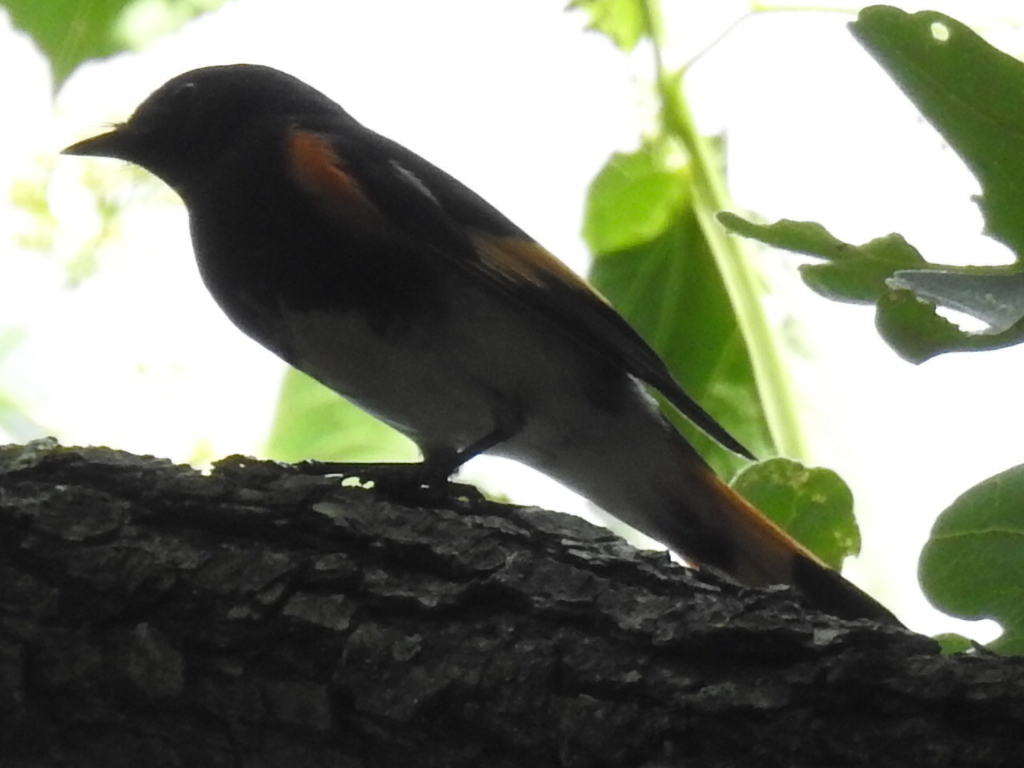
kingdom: Animalia
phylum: Chordata
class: Aves
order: Passeriformes
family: Parulidae
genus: Setophaga
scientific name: Setophaga ruticilla
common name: American redstart
